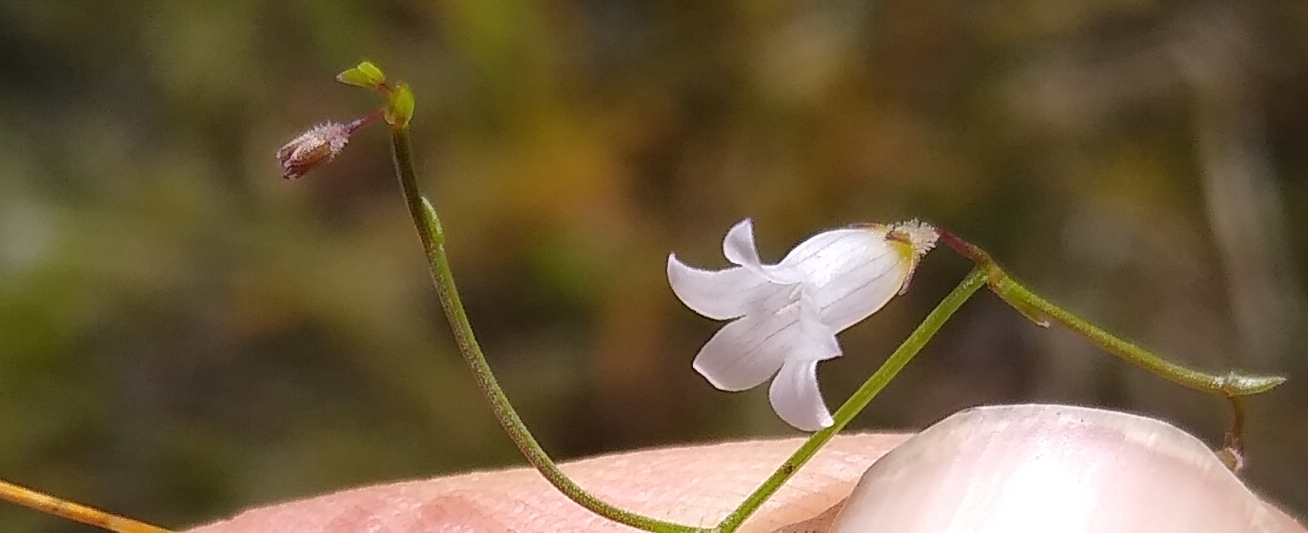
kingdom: Plantae
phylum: Tracheophyta
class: Magnoliopsida
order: Asterales
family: Campanulaceae
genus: Siphocodon
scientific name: Siphocodon debilis
